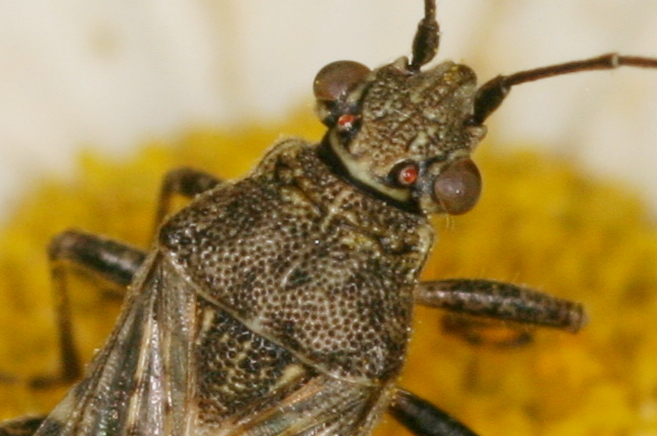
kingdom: Animalia
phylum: Arthropoda
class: Insecta
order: Hemiptera
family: Rhopalidae
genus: Stictopleurus
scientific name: Stictopleurus punctatonervosus
